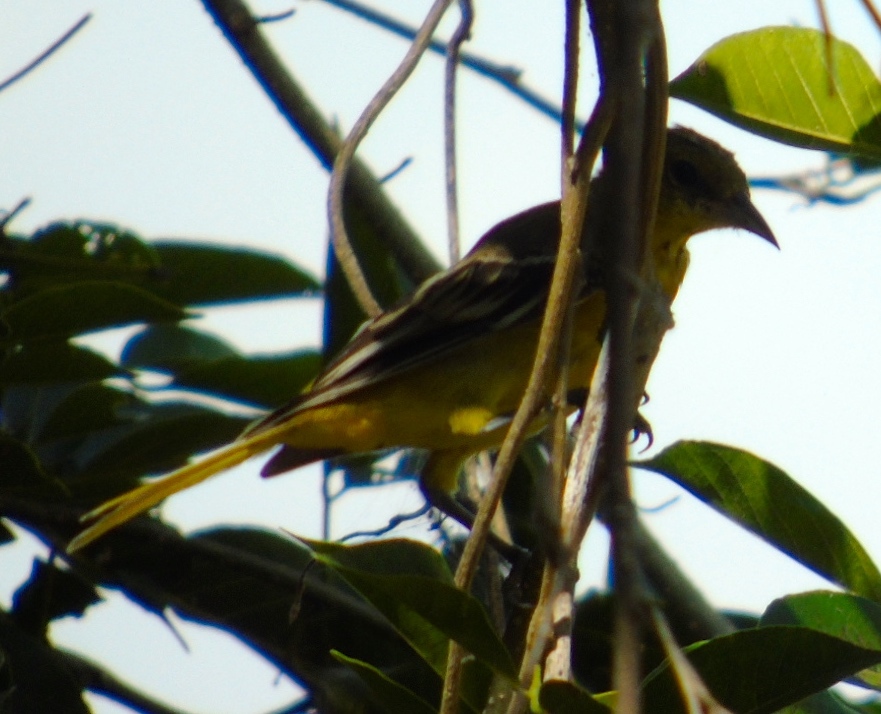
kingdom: Animalia
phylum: Chordata
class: Aves
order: Passeriformes
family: Icteridae
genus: Icterus
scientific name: Icterus
